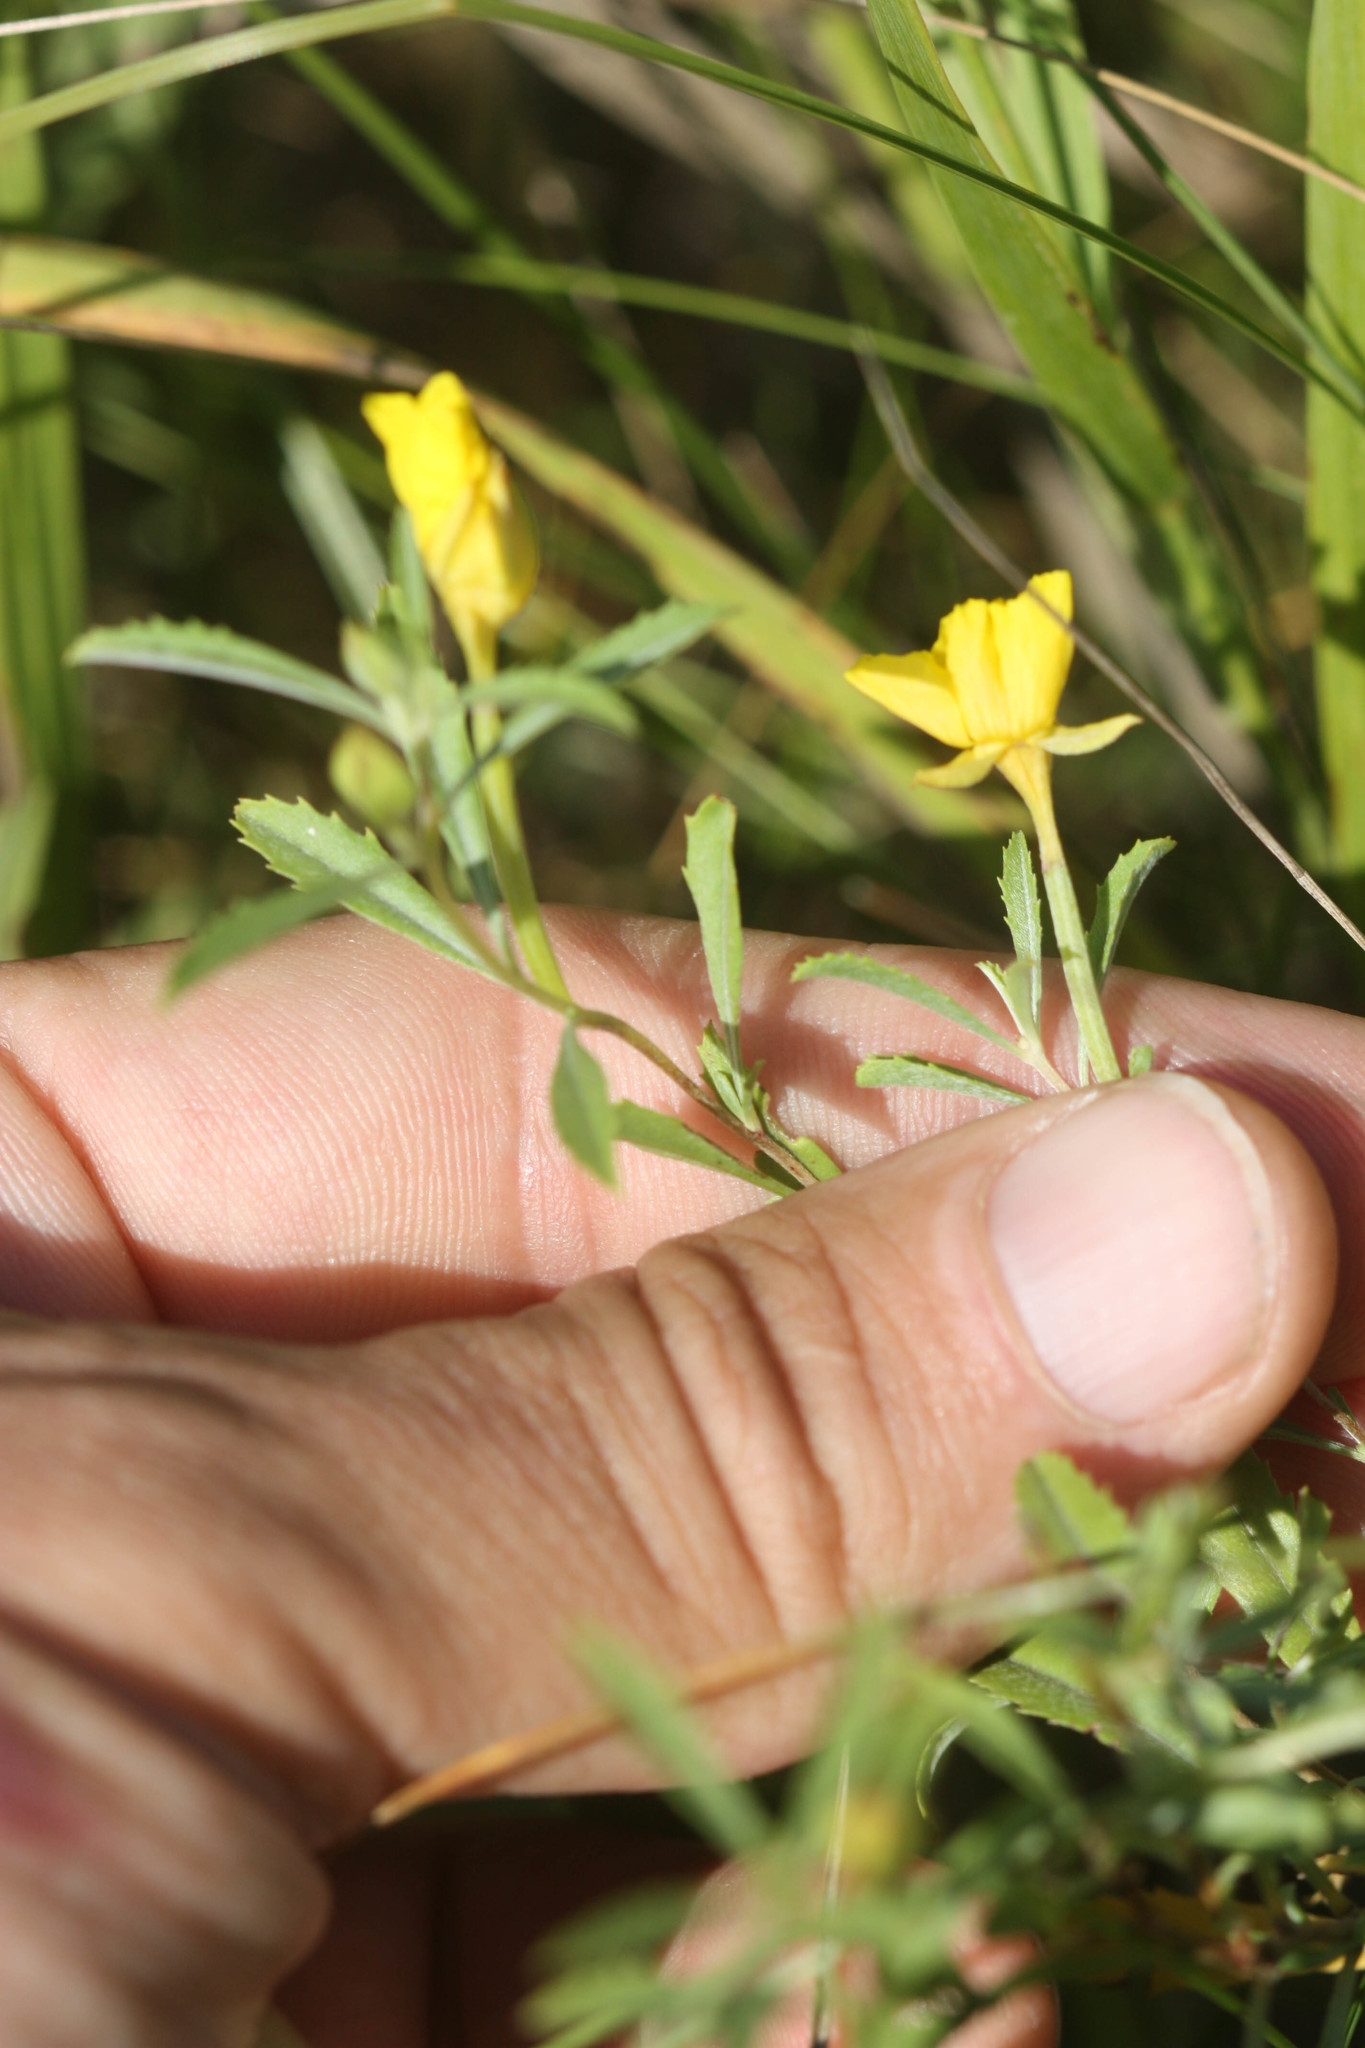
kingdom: Plantae
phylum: Tracheophyta
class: Magnoliopsida
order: Myrtales
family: Onagraceae
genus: Oenothera
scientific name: Oenothera serrulata
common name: Half-shrub calylophus
